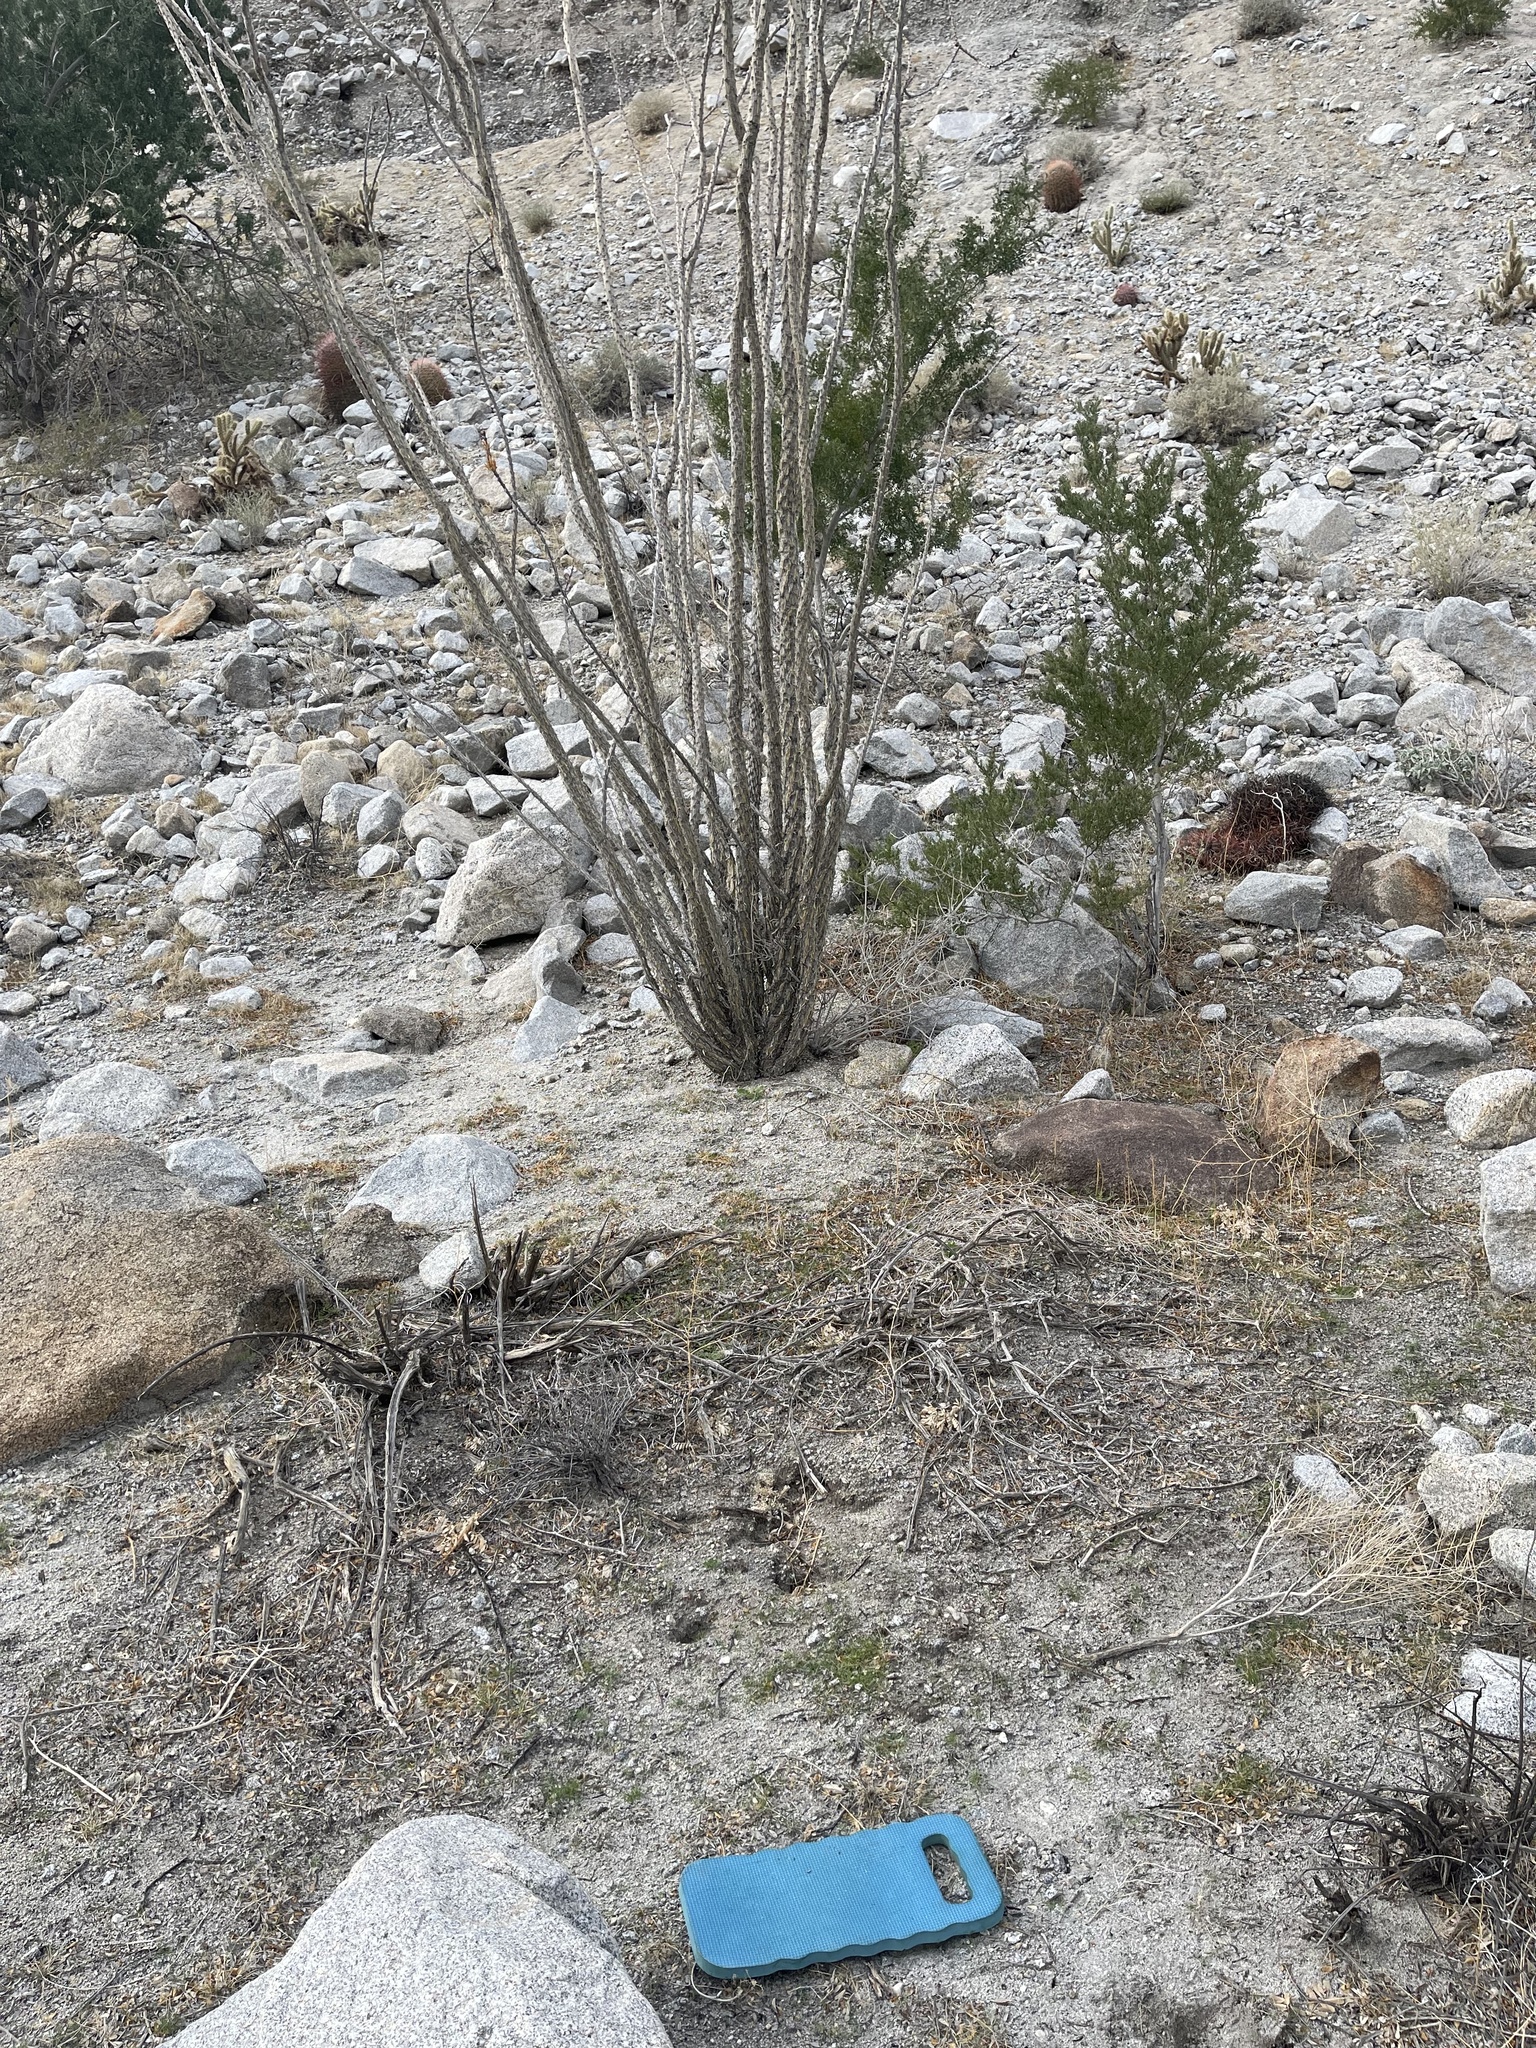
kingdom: Plantae
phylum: Tracheophyta
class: Magnoliopsida
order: Brassicales
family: Brassicaceae
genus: Streptanthus
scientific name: Streptanthus lasiophyllus
